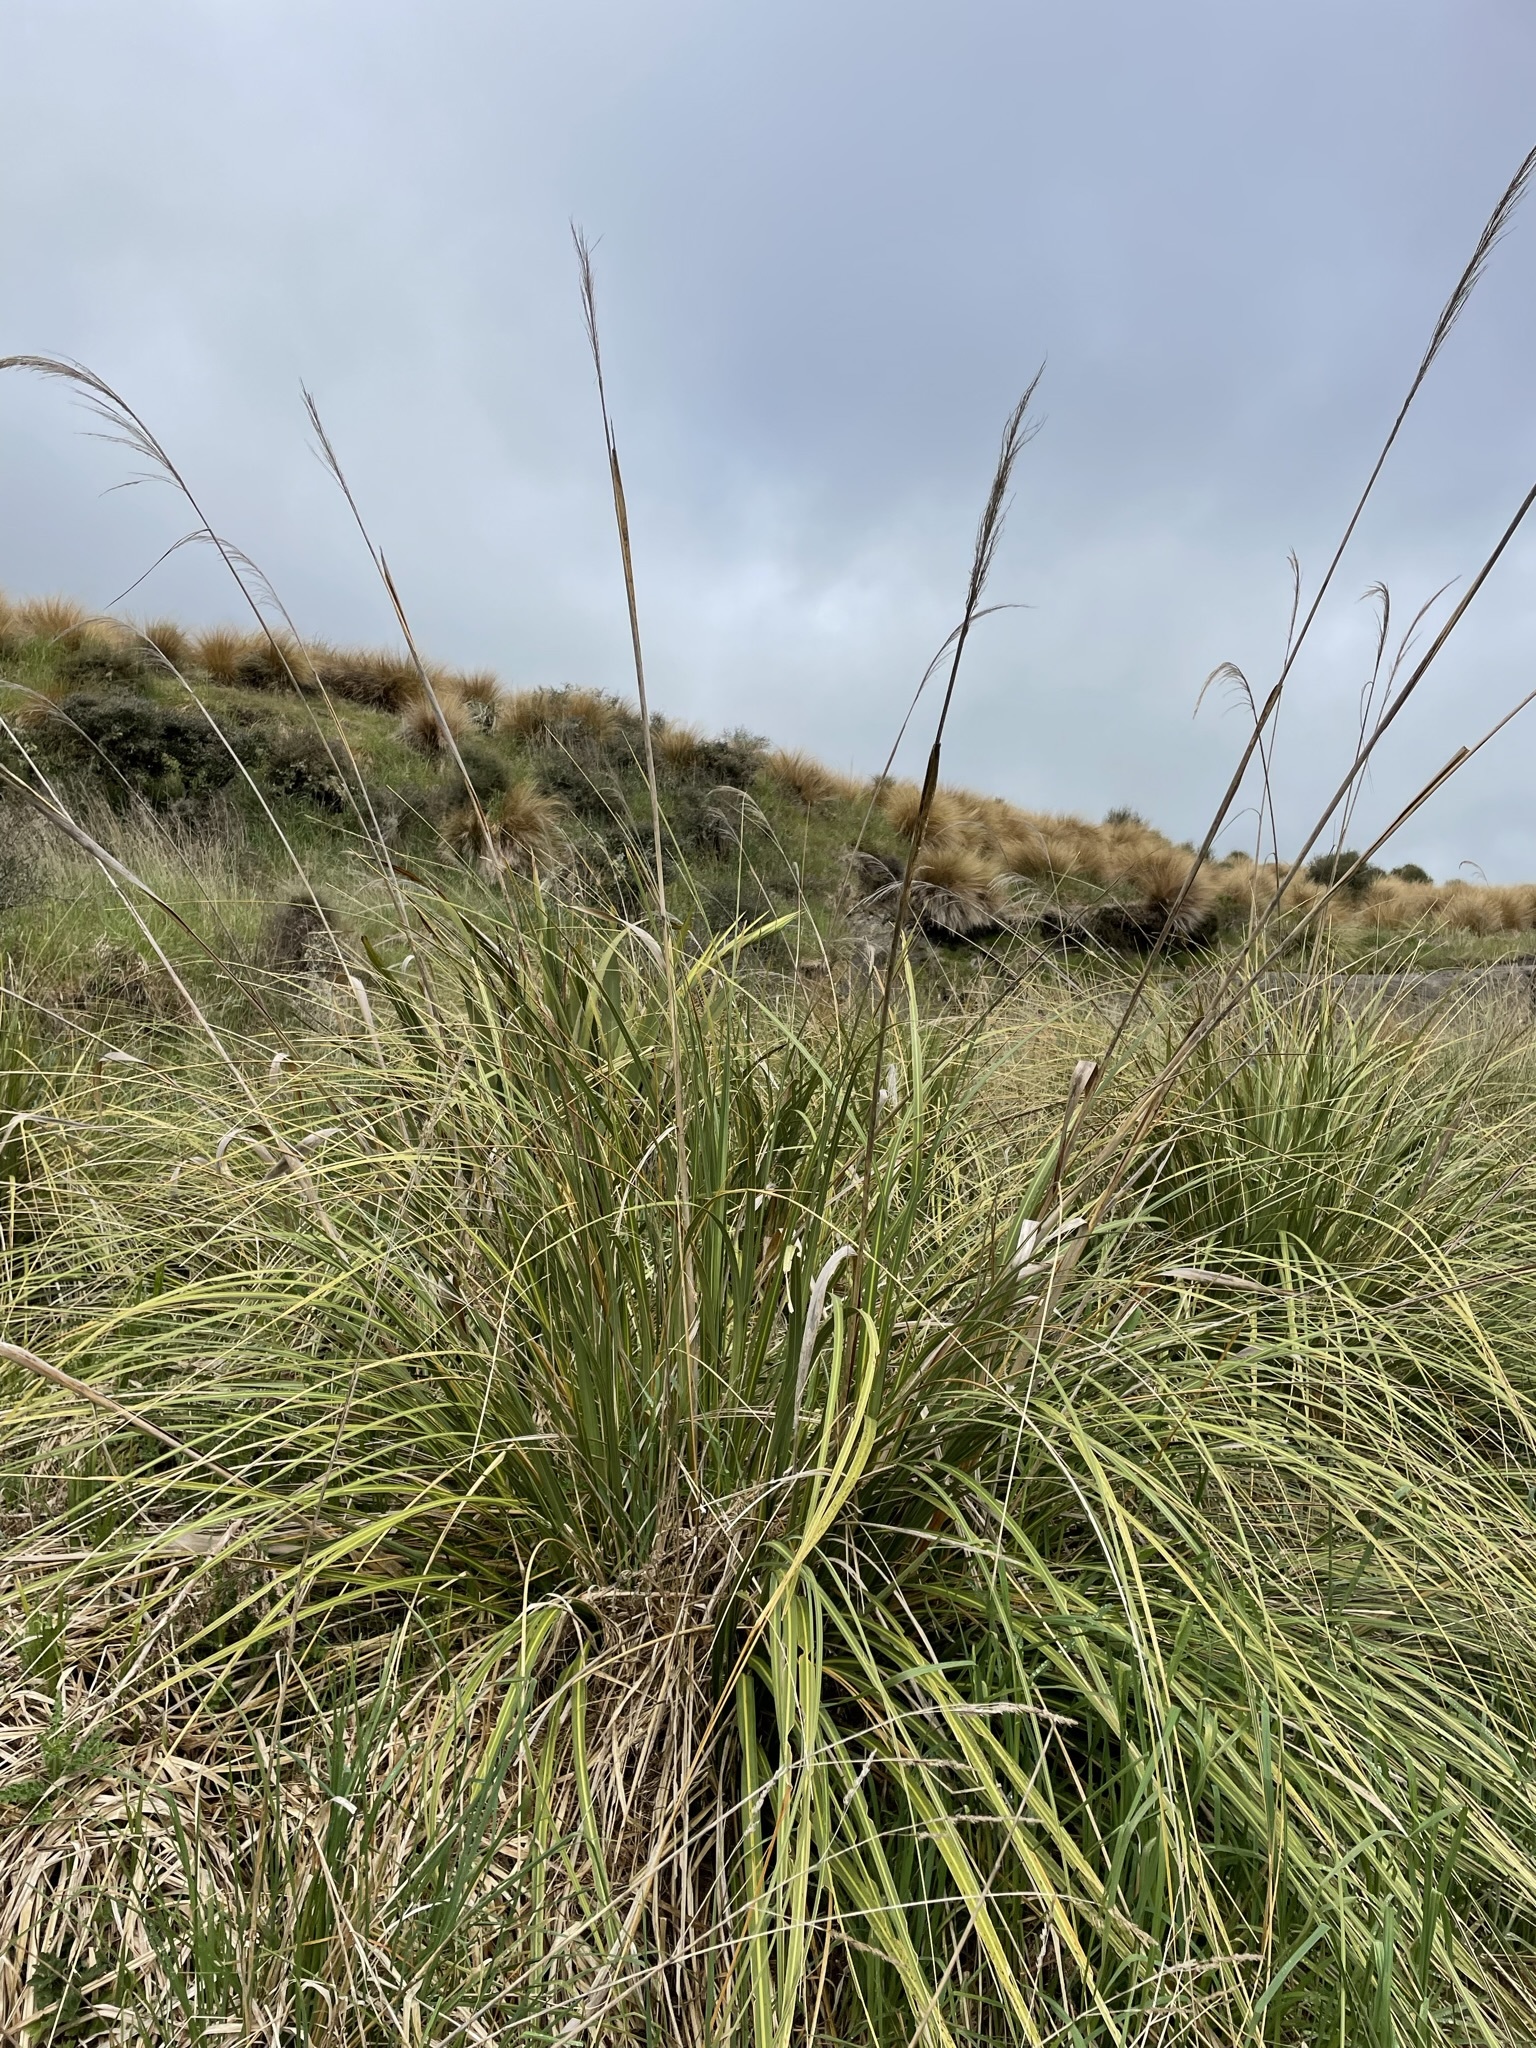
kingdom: Plantae
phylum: Tracheophyta
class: Liliopsida
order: Poales
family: Poaceae
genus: Austroderia
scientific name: Austroderia richardii
